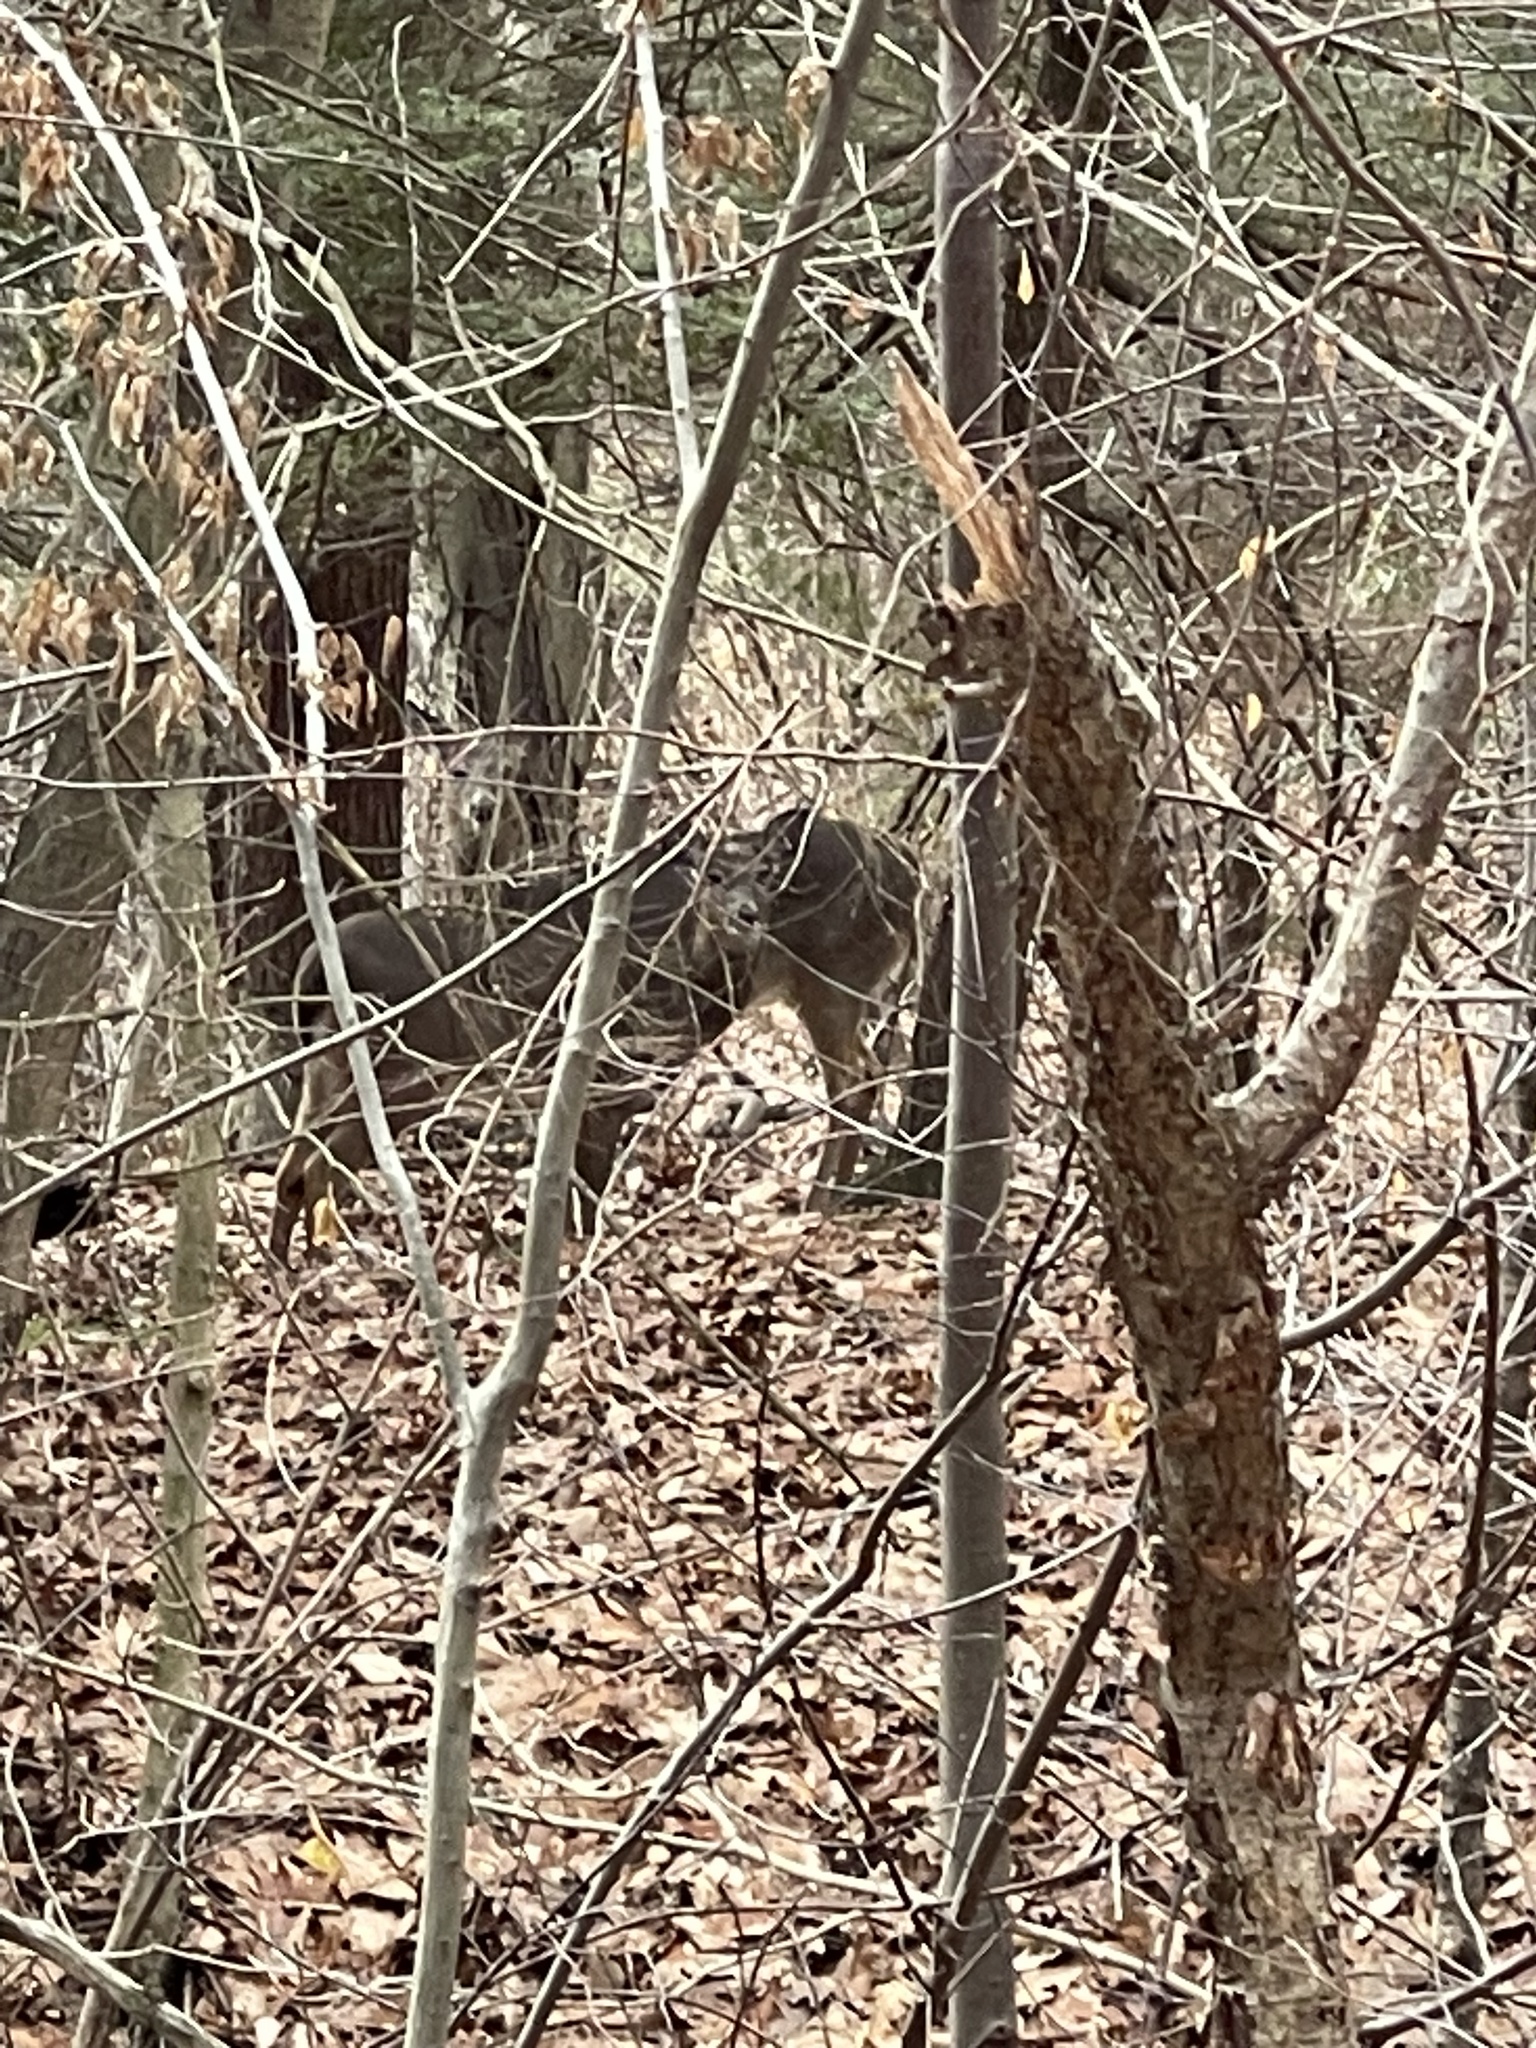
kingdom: Animalia
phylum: Chordata
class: Mammalia
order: Artiodactyla
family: Cervidae
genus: Odocoileus
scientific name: Odocoileus virginianus
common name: White-tailed deer
